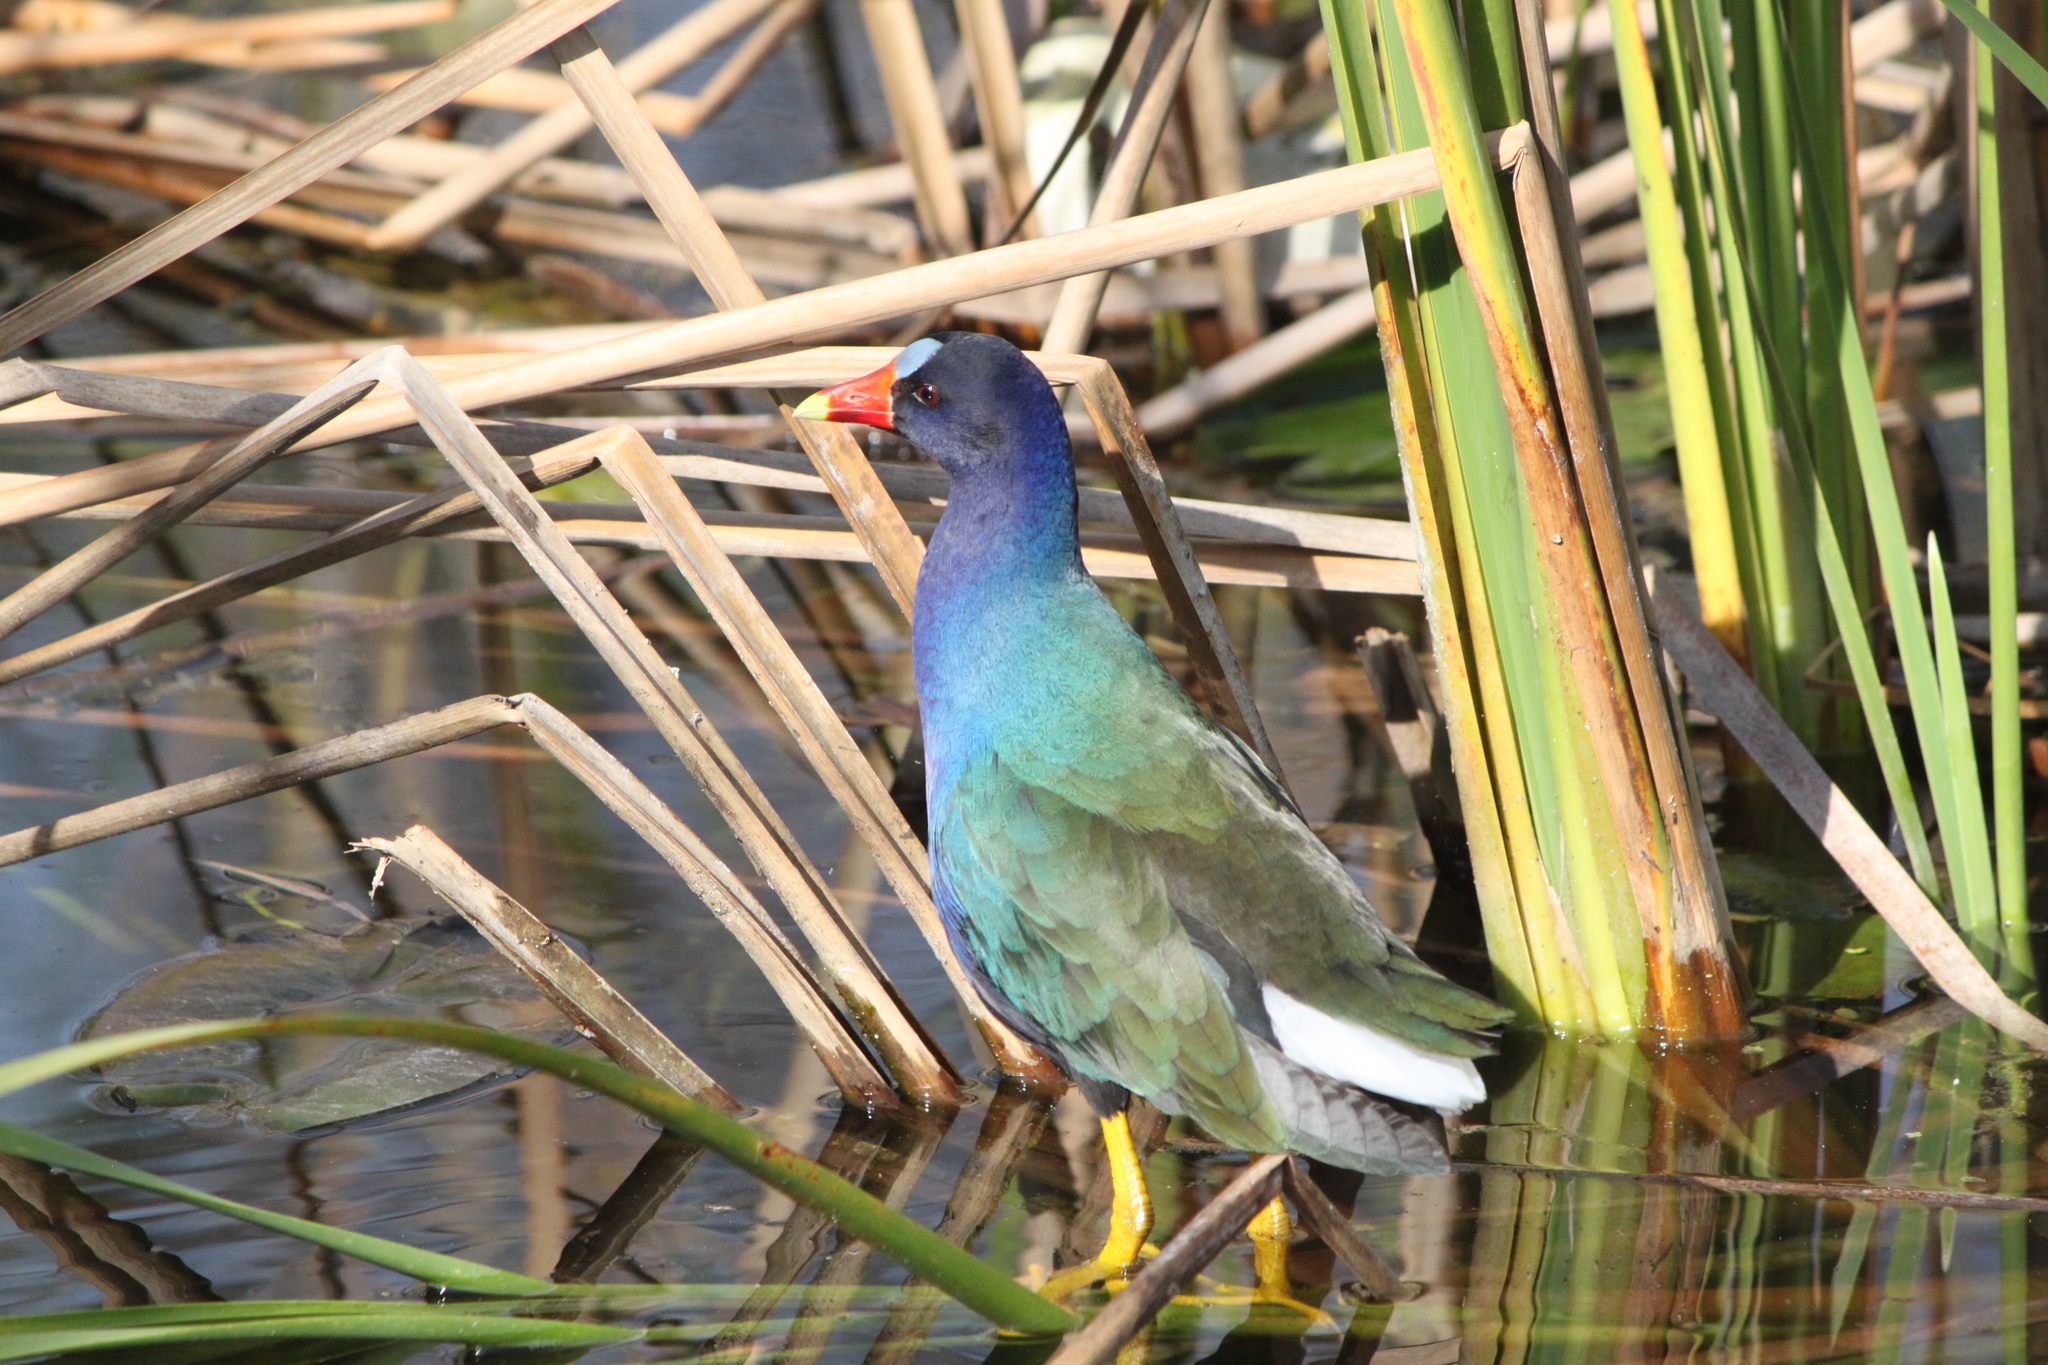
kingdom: Animalia
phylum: Chordata
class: Aves
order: Gruiformes
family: Rallidae
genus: Porphyrio
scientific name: Porphyrio martinica
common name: Purple gallinule
